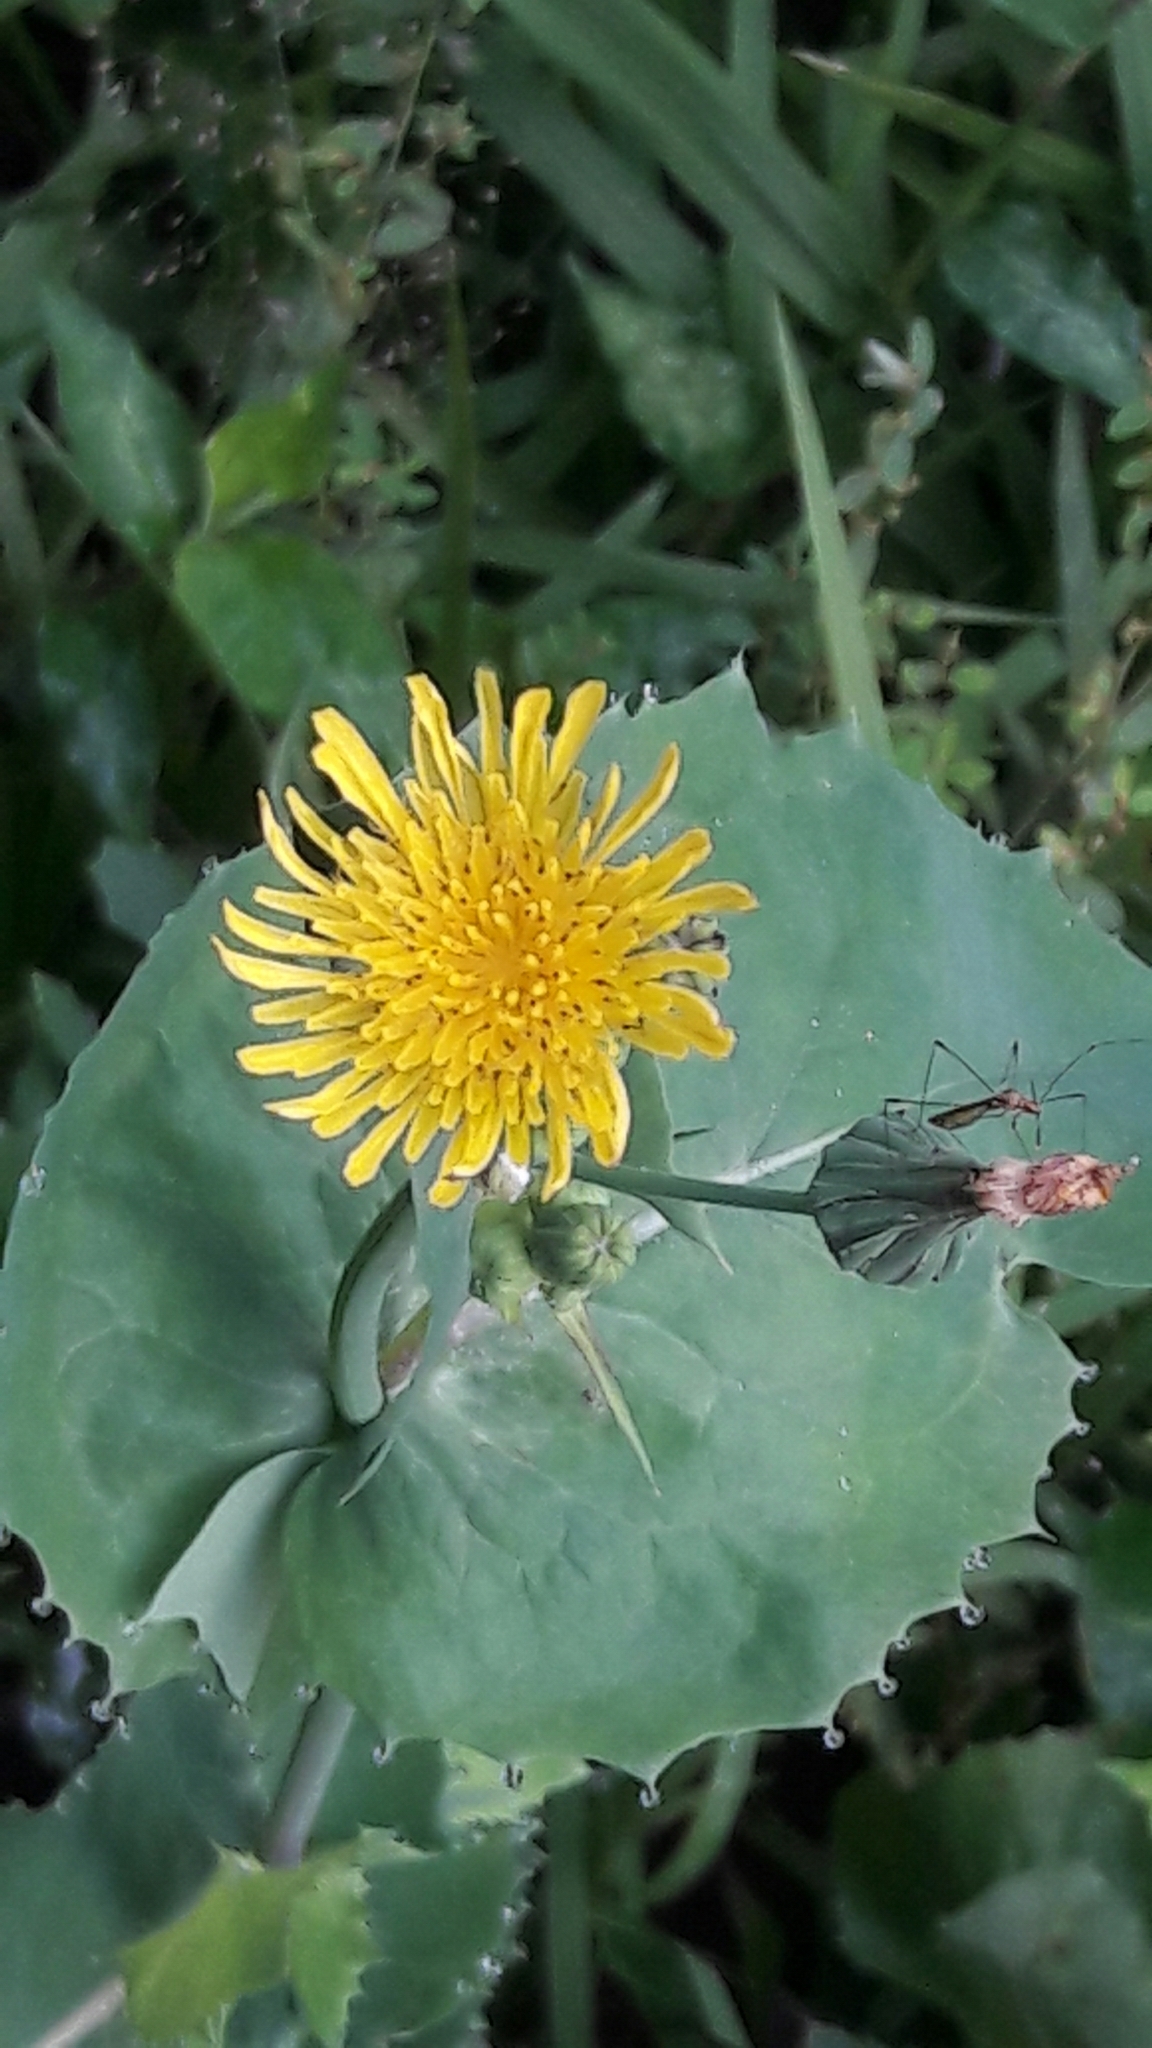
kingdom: Plantae
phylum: Tracheophyta
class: Magnoliopsida
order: Asterales
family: Asteraceae
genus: Sonchus
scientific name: Sonchus oleraceus
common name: Common sowthistle
